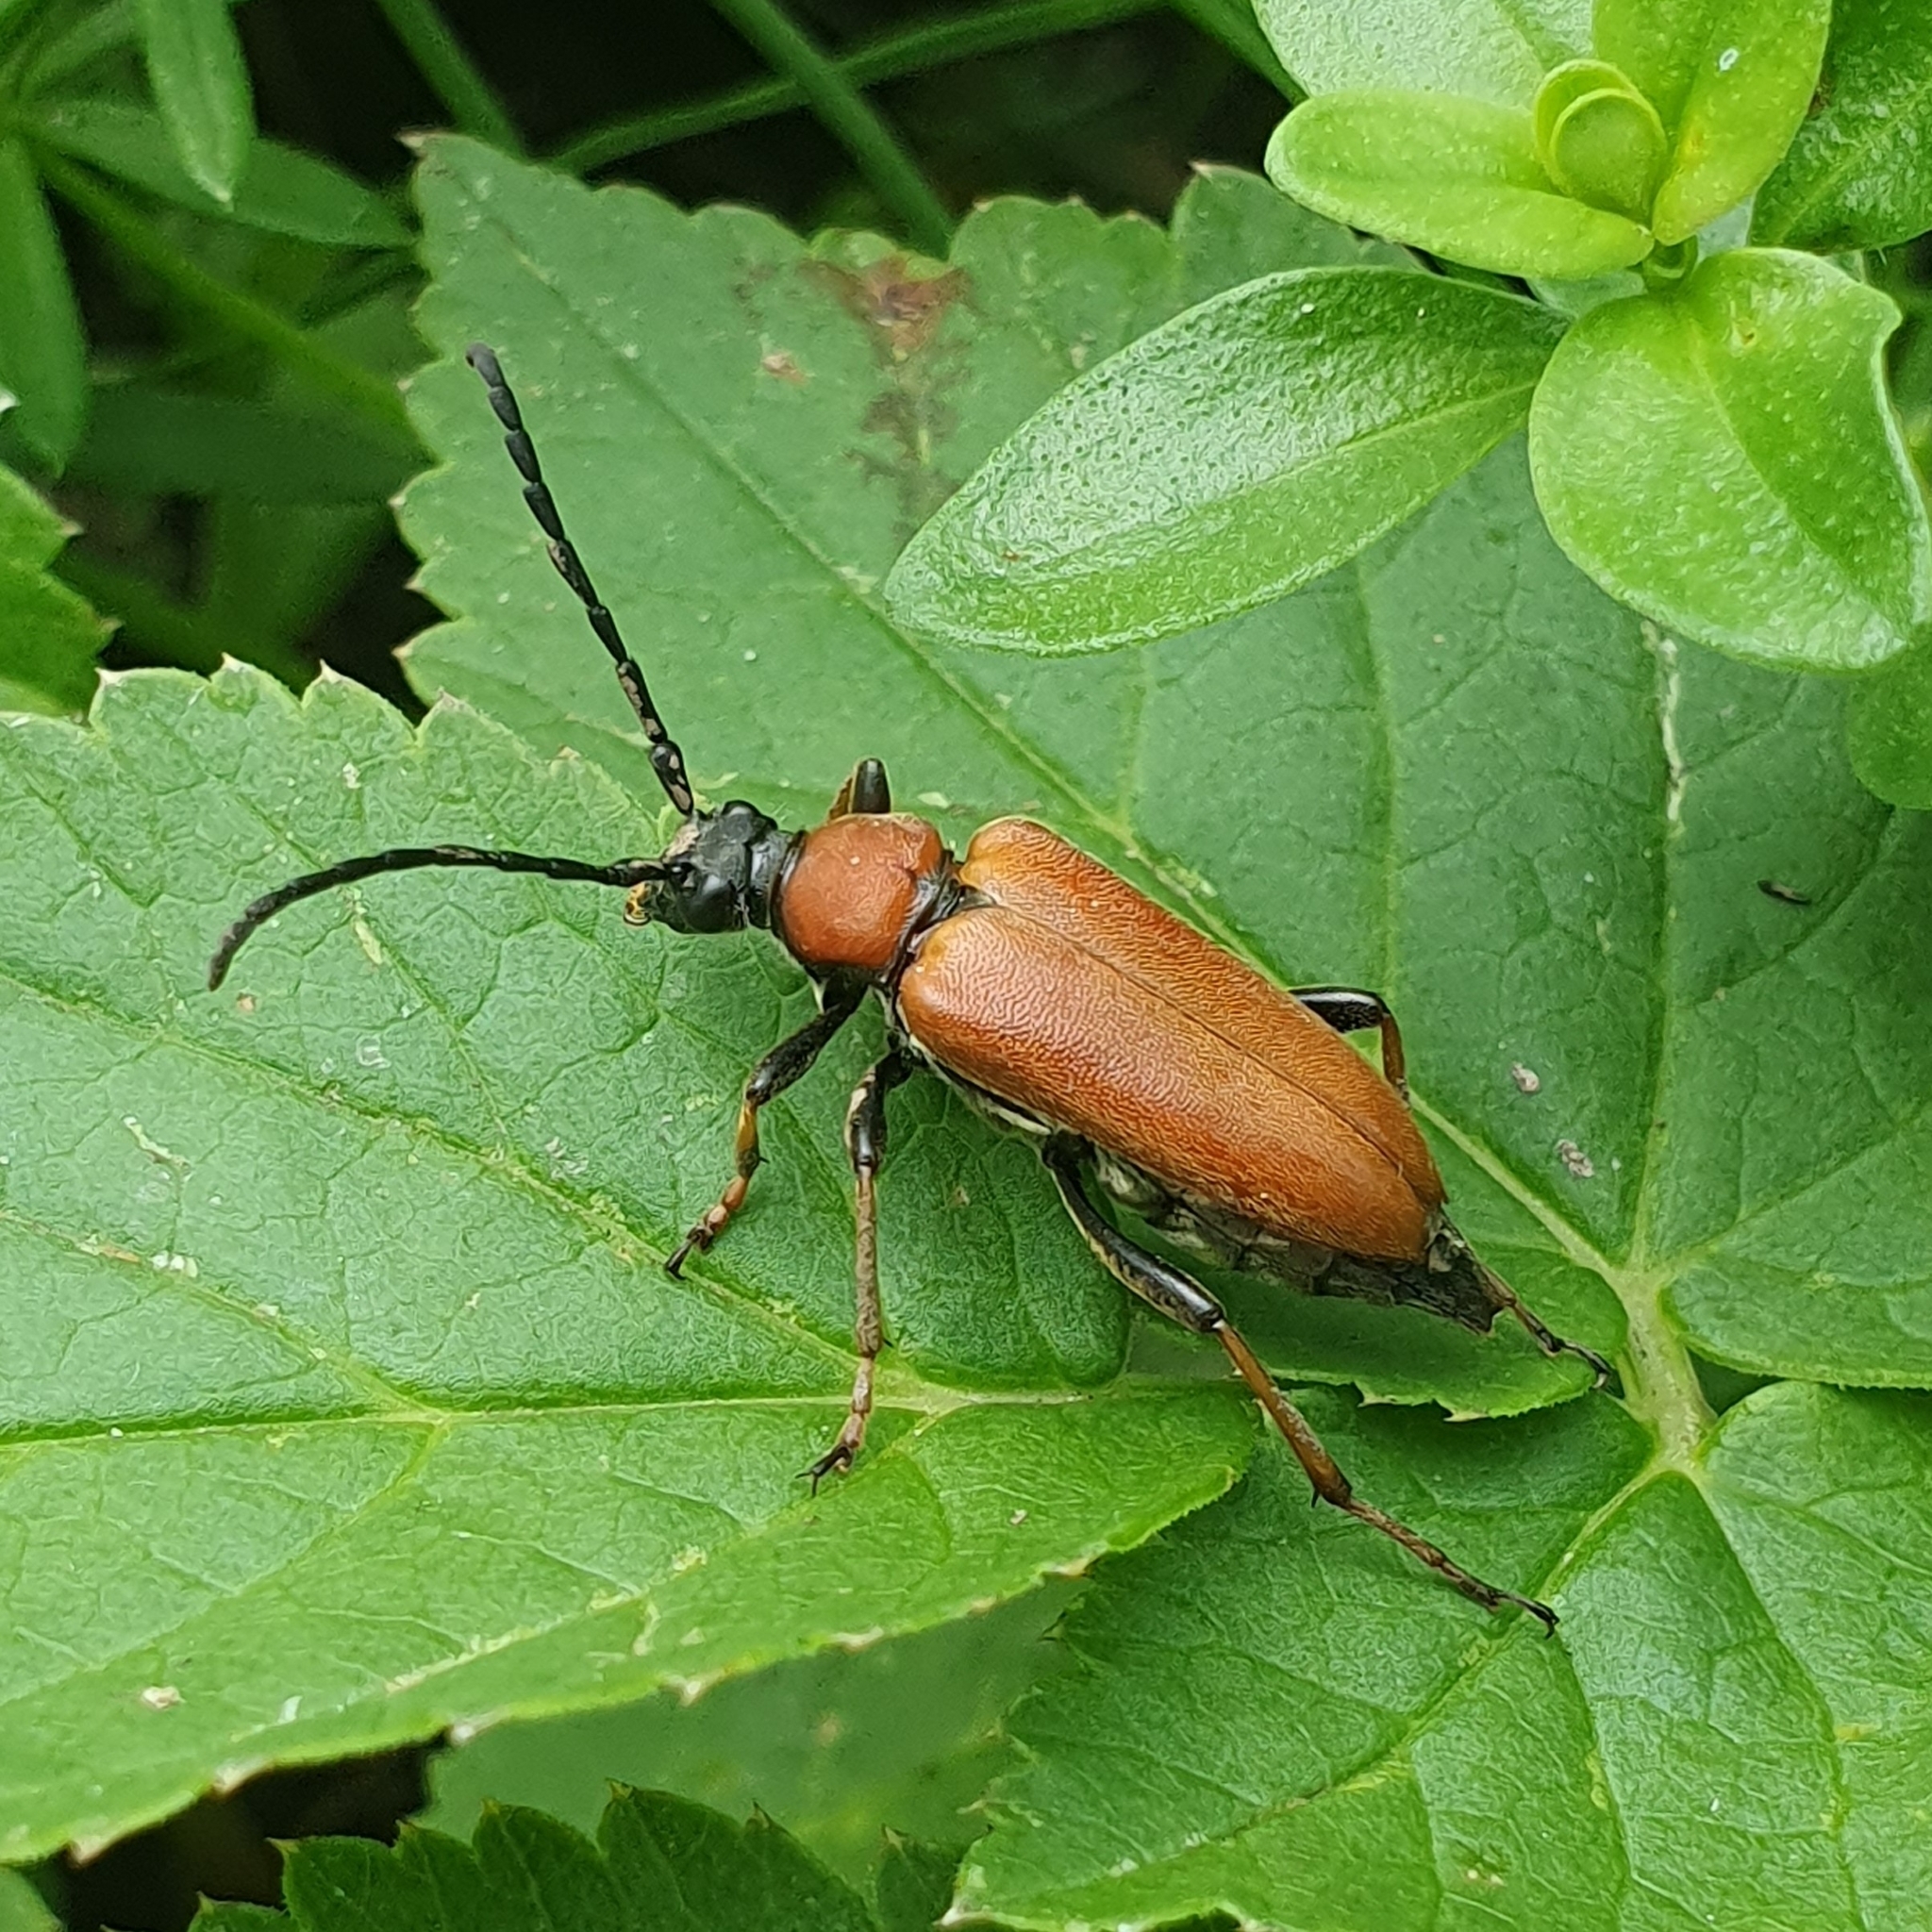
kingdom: Animalia
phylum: Arthropoda
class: Insecta
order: Coleoptera
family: Cerambycidae
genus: Stictoleptura
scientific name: Stictoleptura rubra
